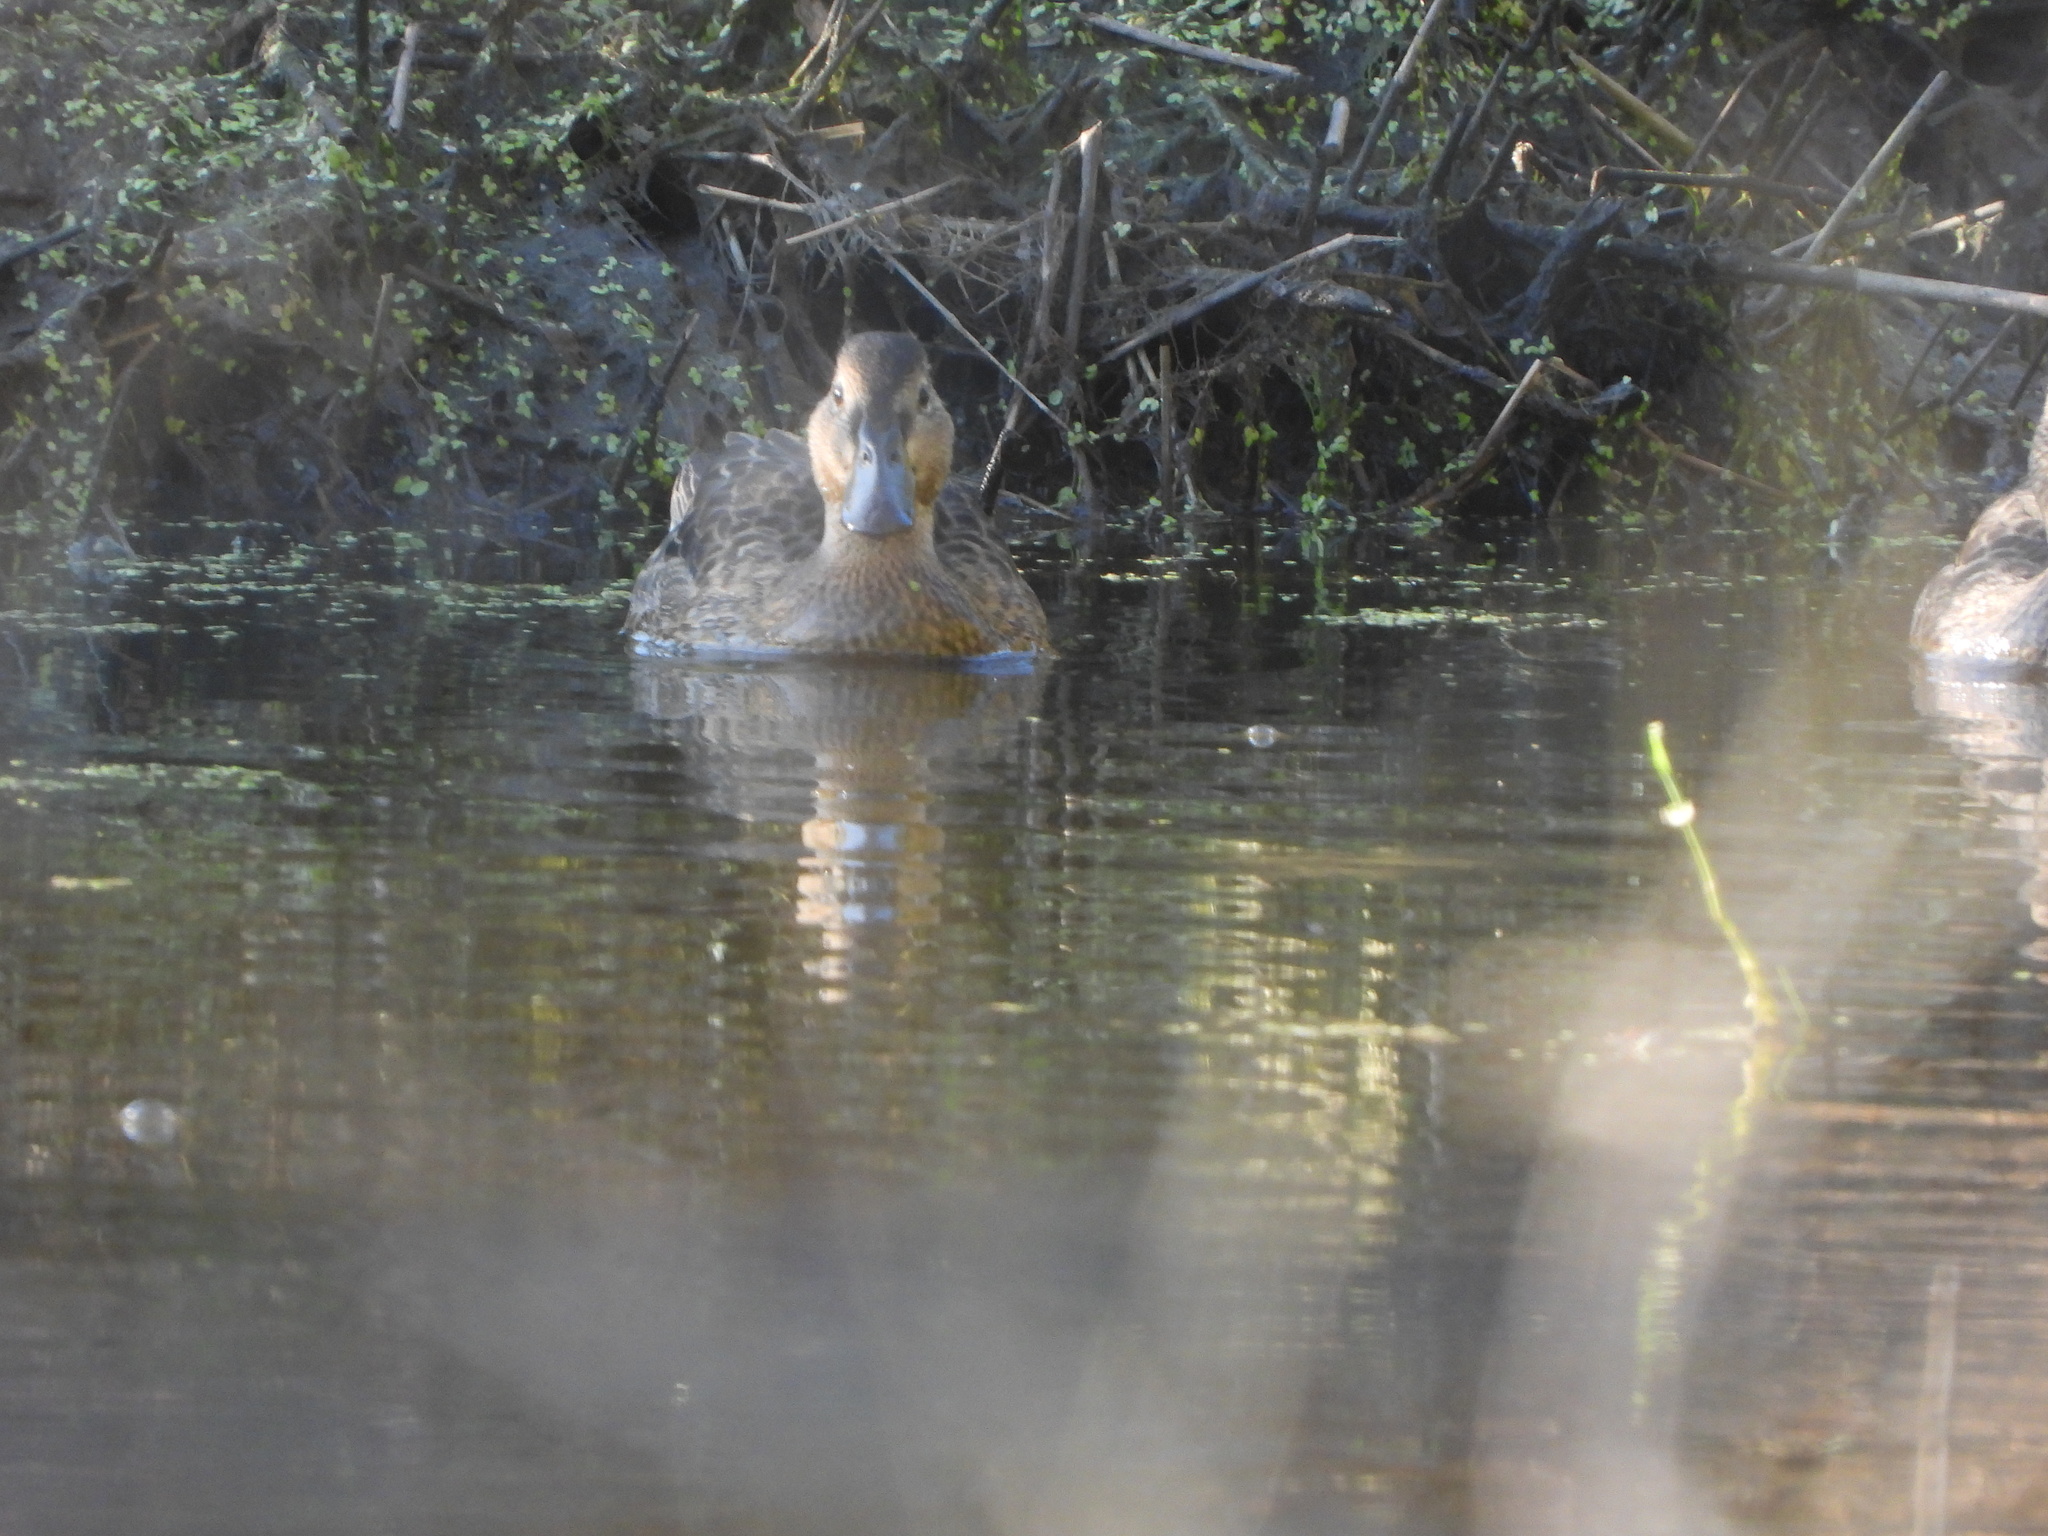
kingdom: Animalia
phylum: Chordata
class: Aves
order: Anseriformes
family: Anatidae
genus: Spatula
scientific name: Spatula cyanoptera
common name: Cinnamon teal
